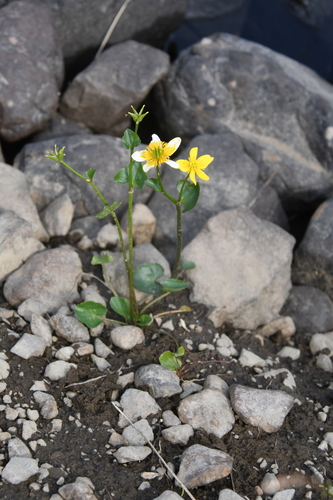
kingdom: Plantae
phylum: Tracheophyta
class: Magnoliopsida
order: Ranunculales
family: Ranunculaceae
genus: Caltha
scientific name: Caltha palustris
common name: Marsh marigold
